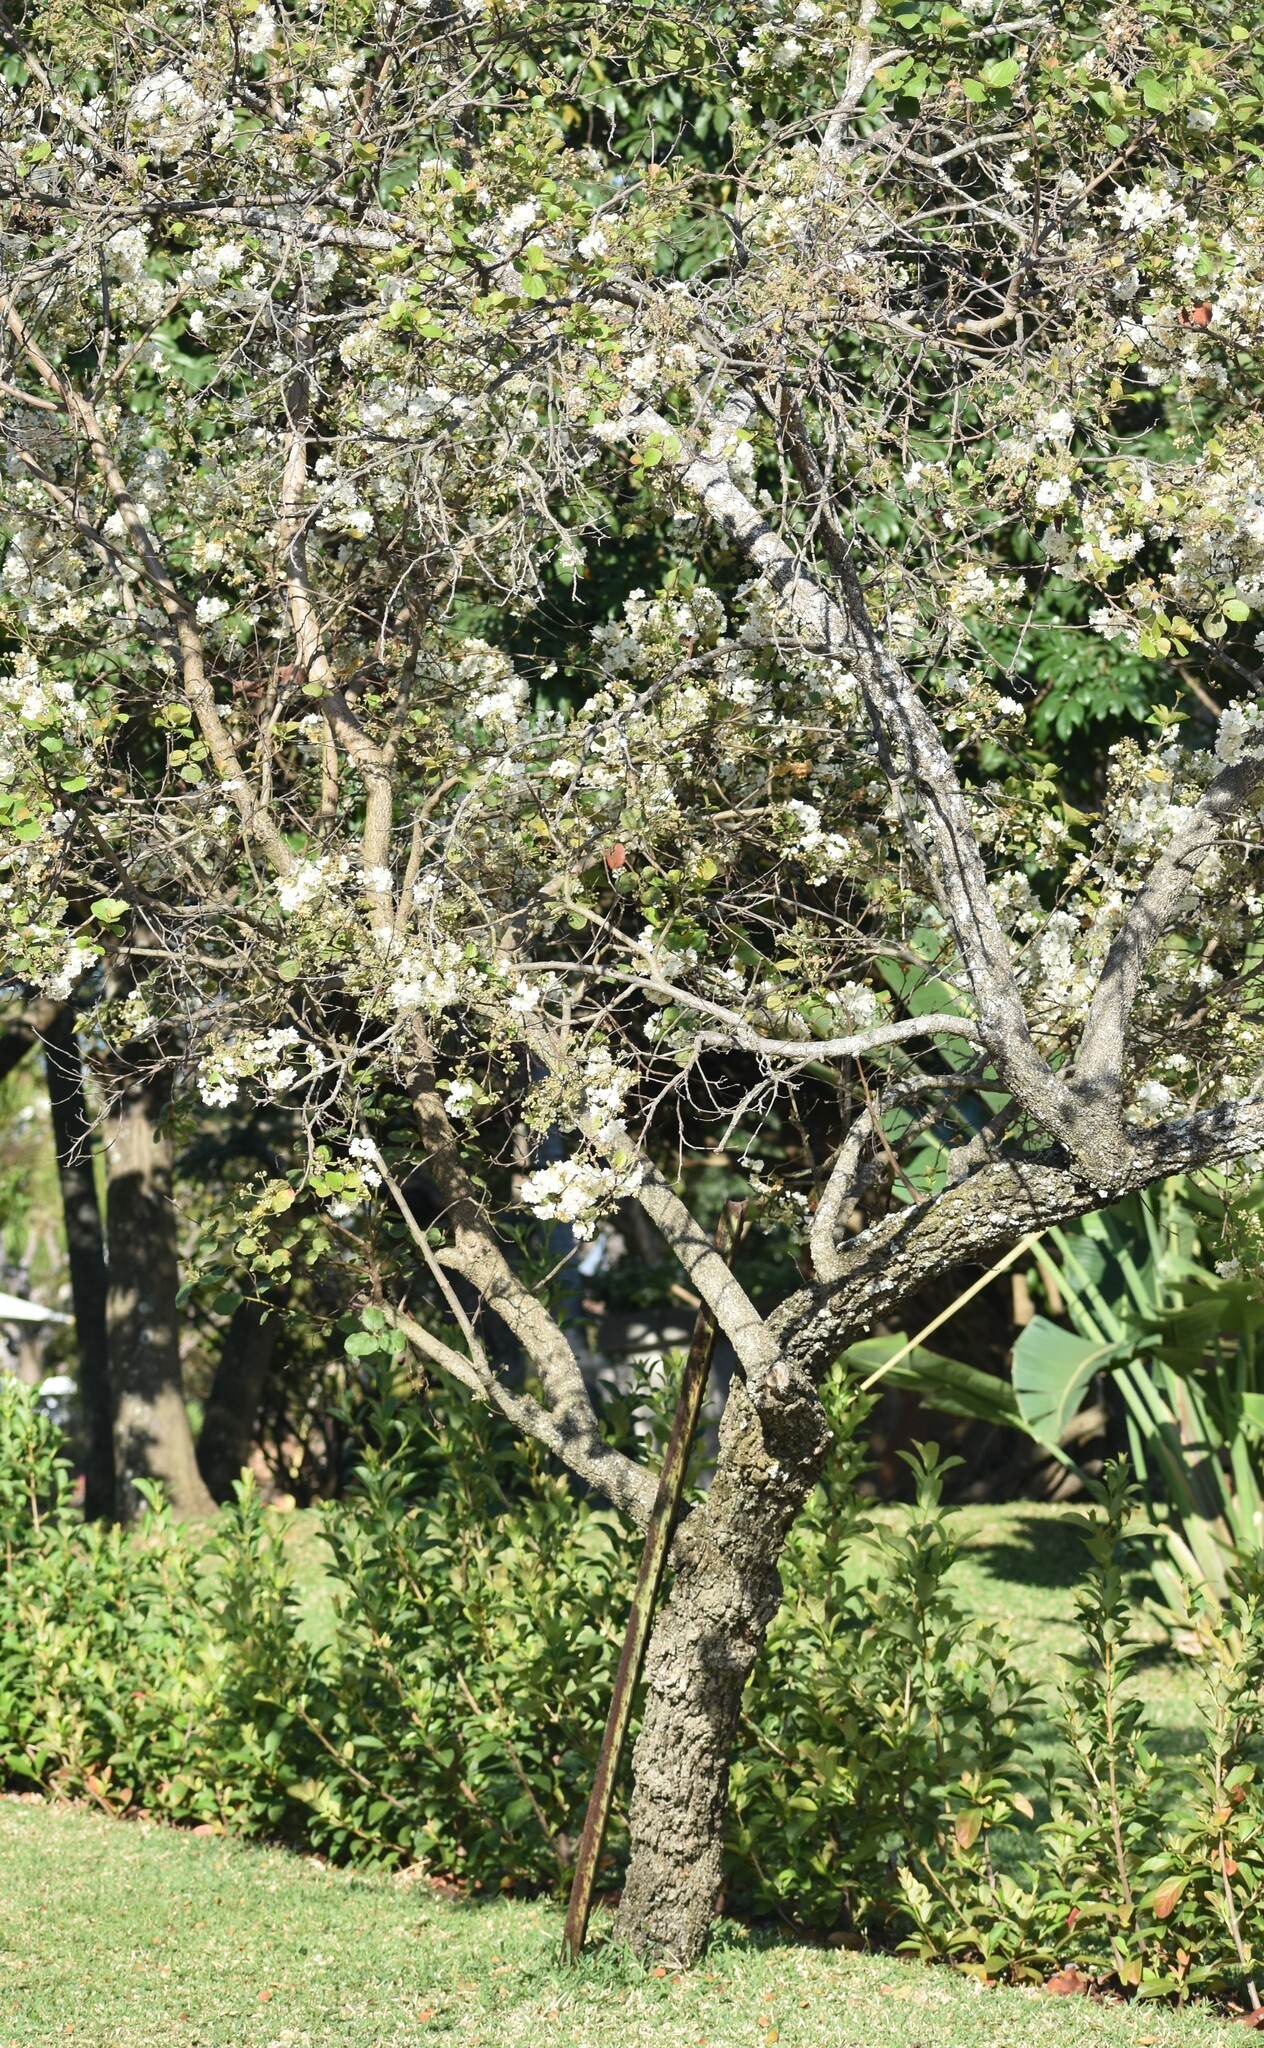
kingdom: Plantae
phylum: Tracheophyta
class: Magnoliopsida
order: Malvales
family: Malvaceae
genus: Dombeya
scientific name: Dombeya rotundifolia
